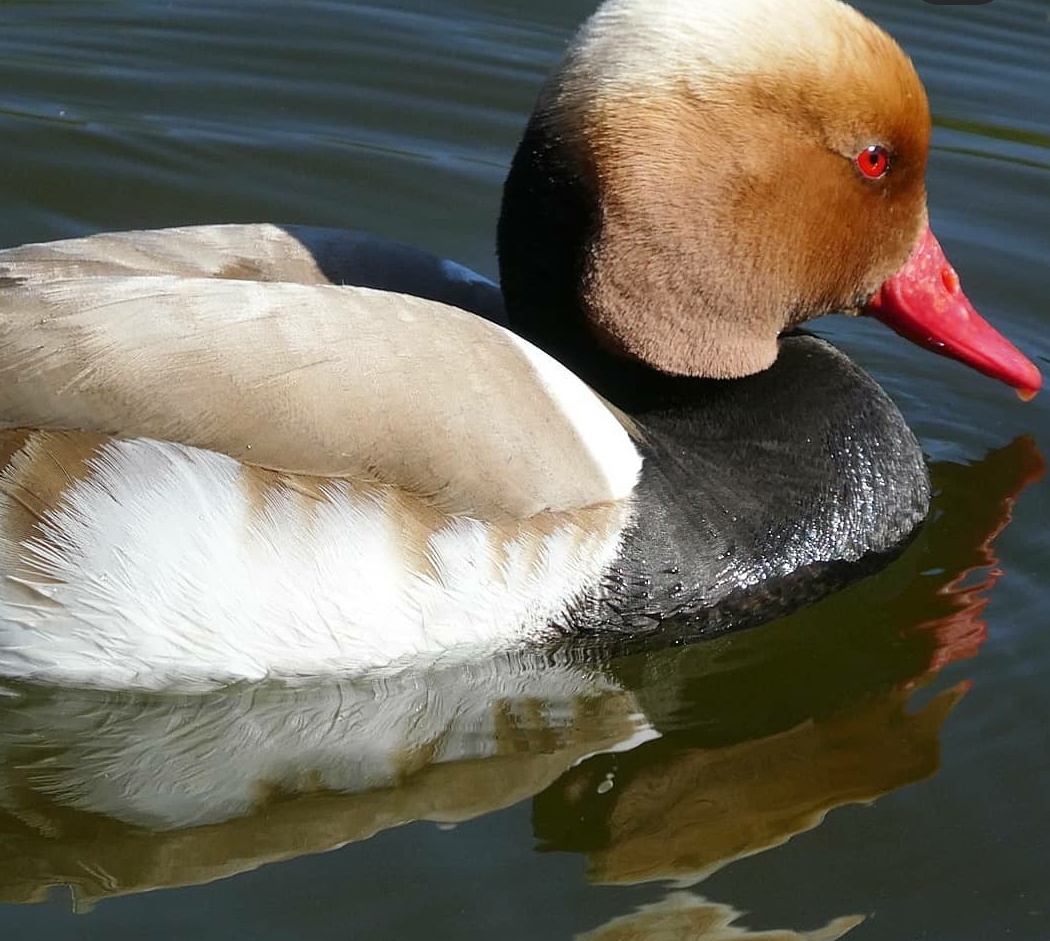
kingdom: Animalia
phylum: Chordata
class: Aves
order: Anseriformes
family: Anatidae
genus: Netta
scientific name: Netta rufina
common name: Red-crested pochard
